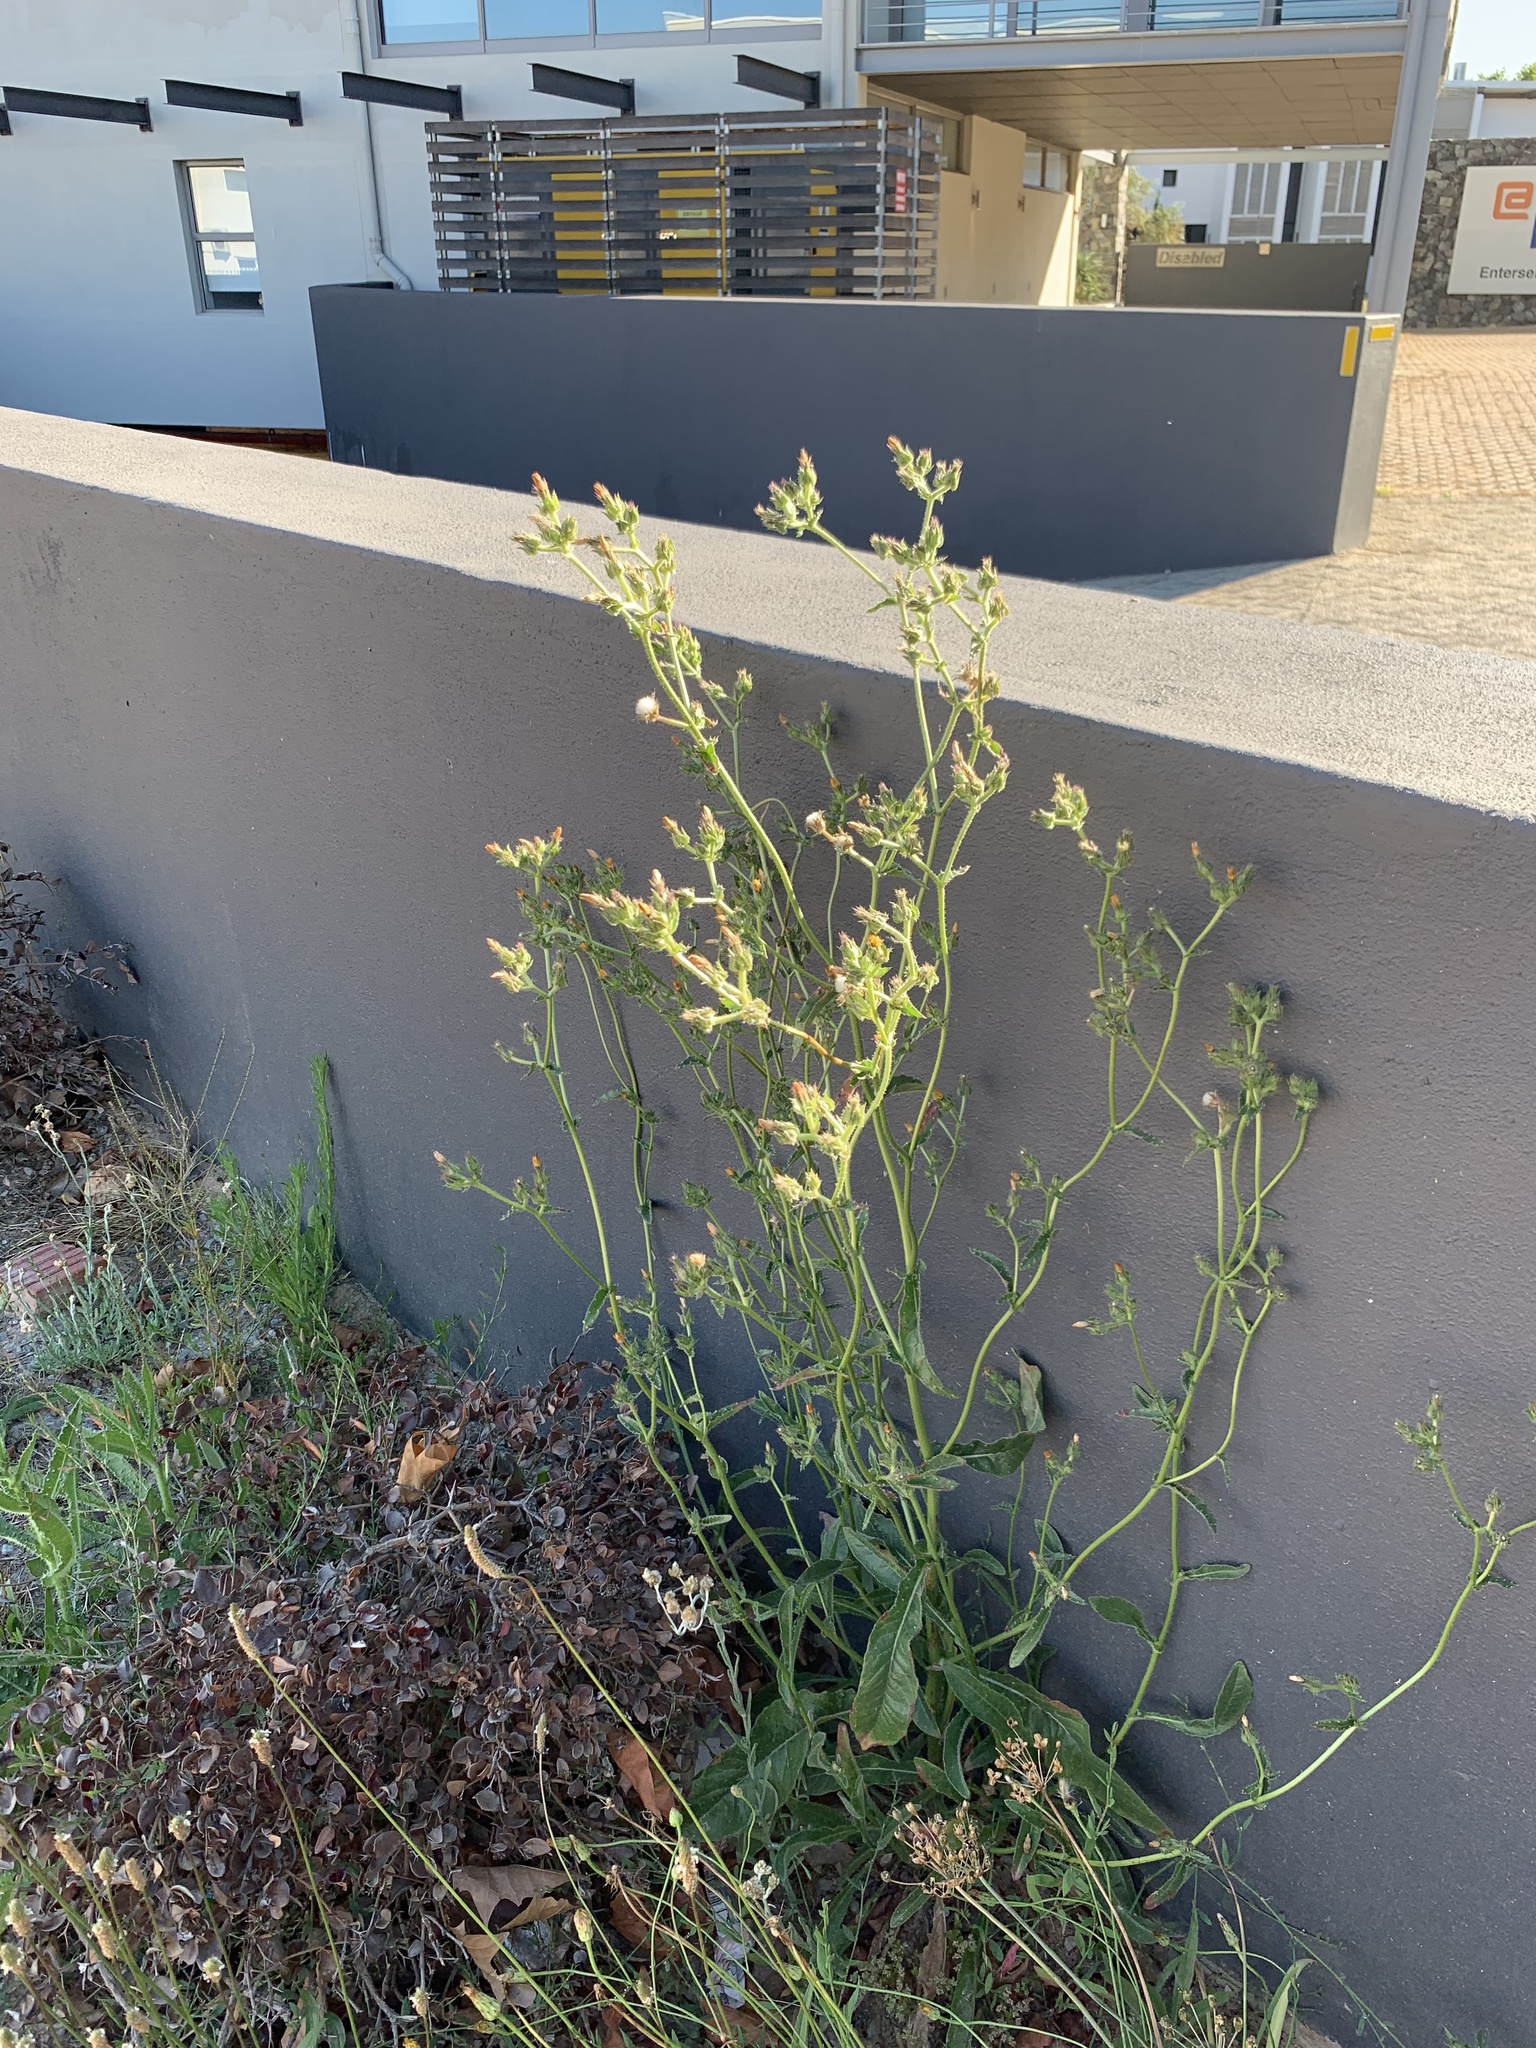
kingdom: Plantae
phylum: Tracheophyta
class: Magnoliopsida
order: Asterales
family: Asteraceae
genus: Helminthotheca
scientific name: Helminthotheca echioides
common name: Ox-tongue
